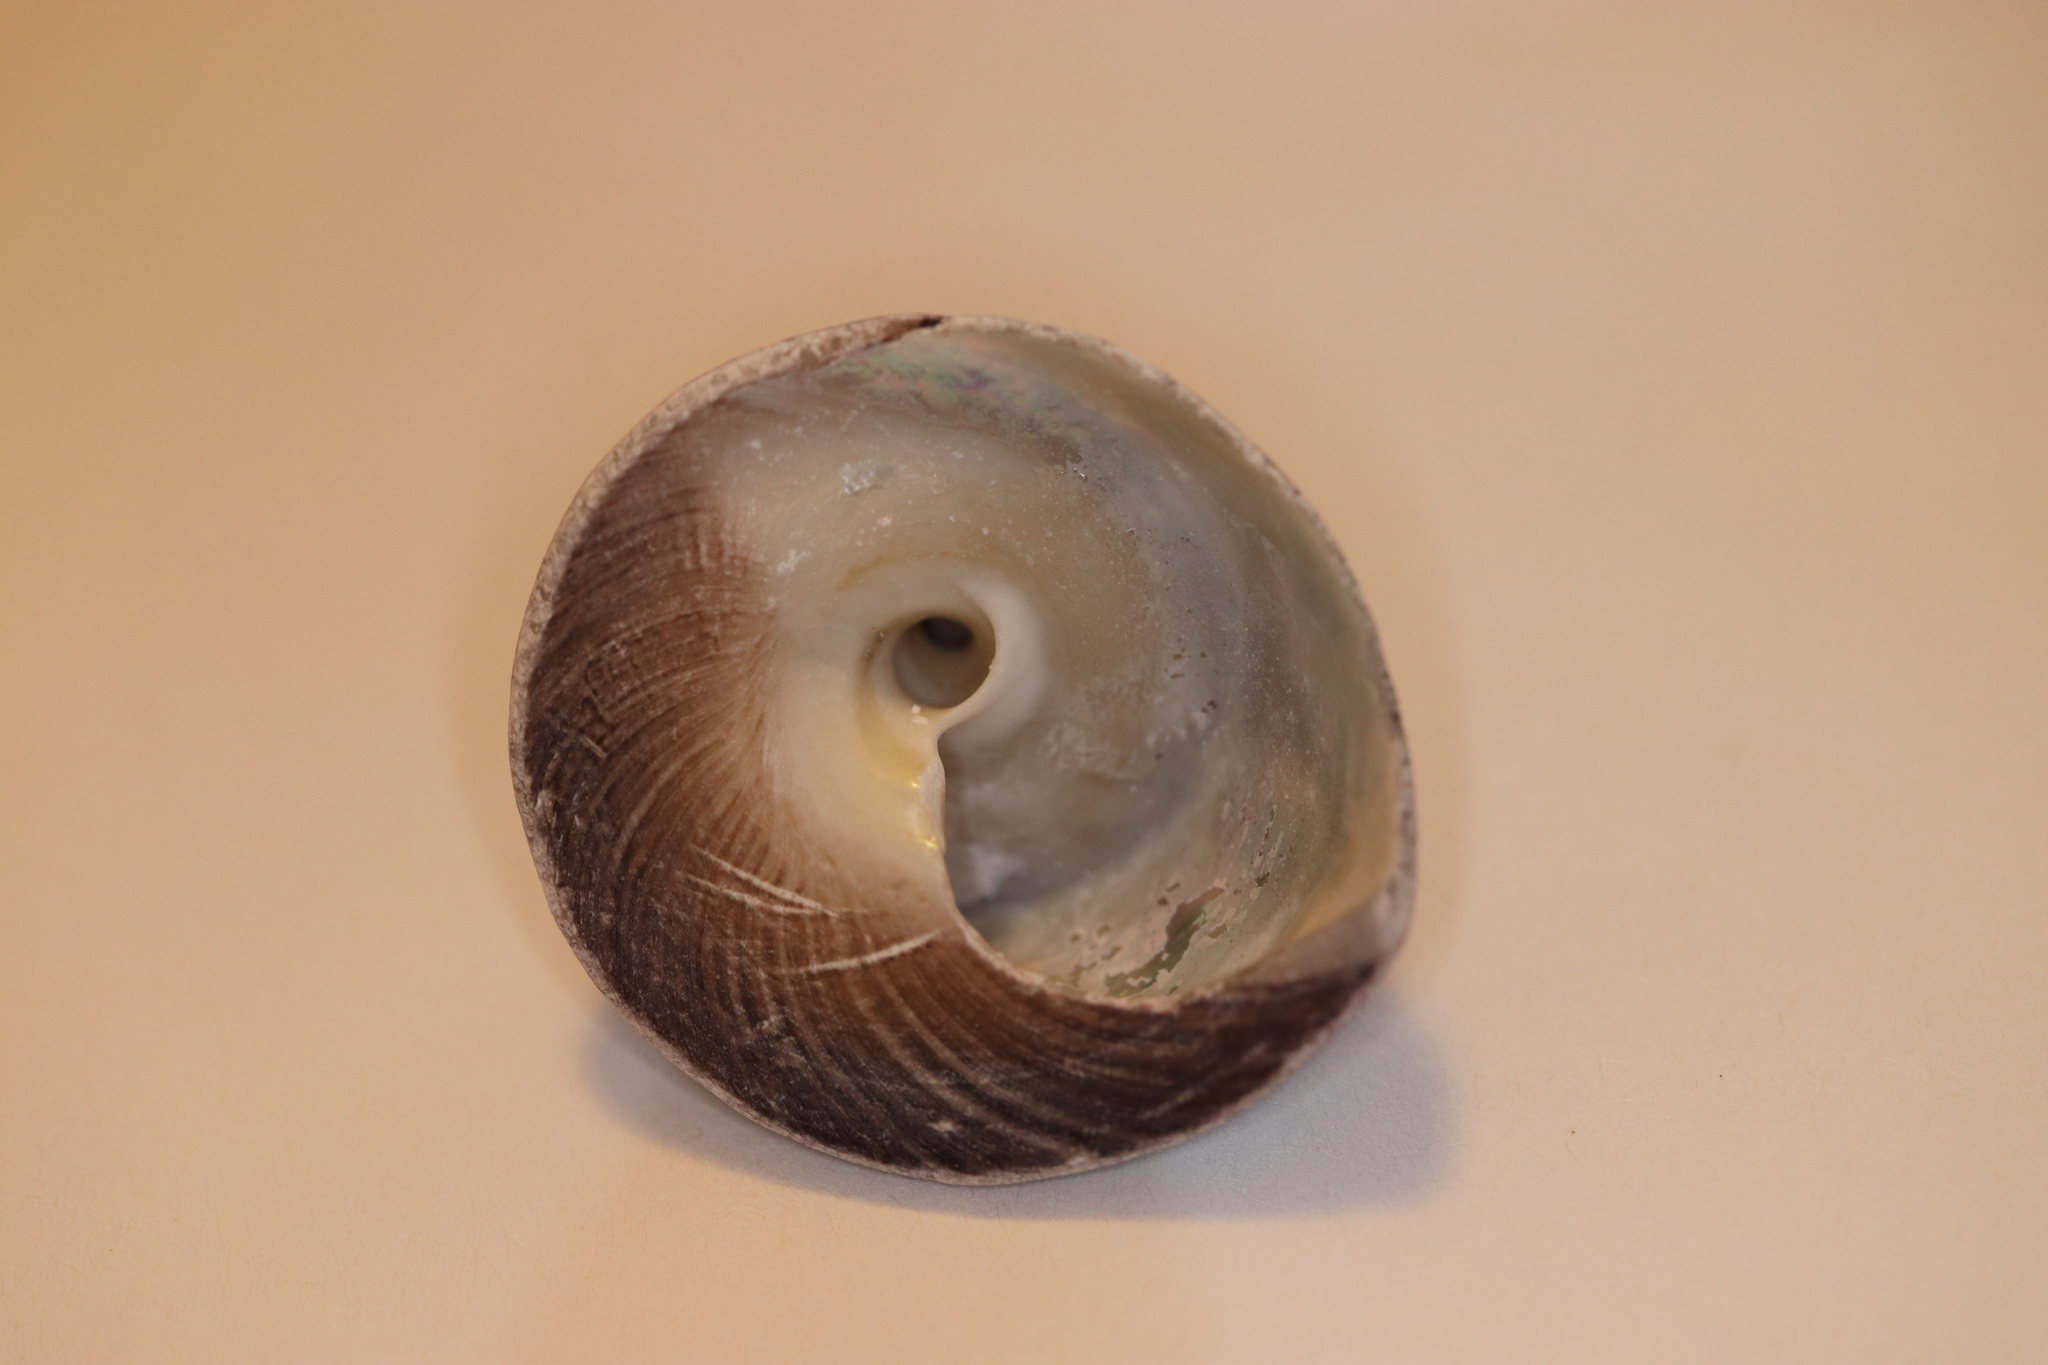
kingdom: Animalia
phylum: Mollusca
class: Gastropoda
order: Trochida
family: Tegulidae
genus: Tegula
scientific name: Tegula pfeifferi
